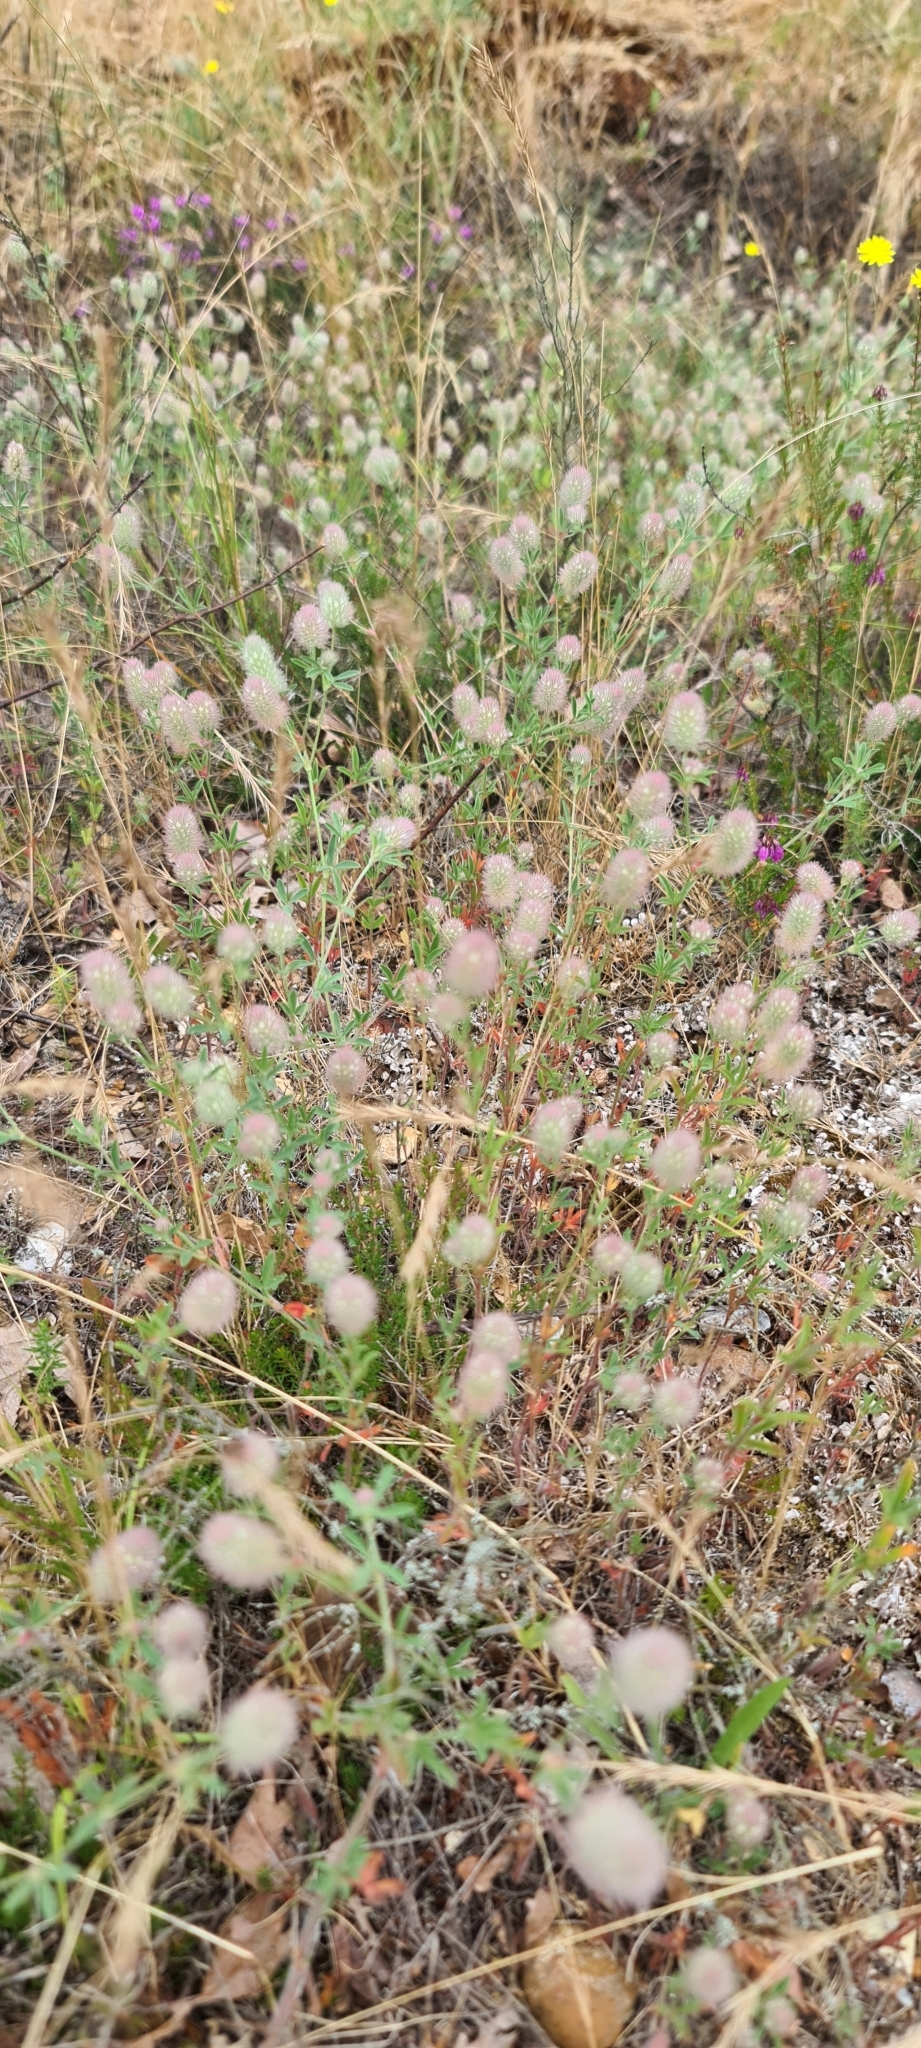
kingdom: Plantae
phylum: Tracheophyta
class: Magnoliopsida
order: Fabales
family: Fabaceae
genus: Trifolium
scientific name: Trifolium arvense
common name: Hare's-foot clover
